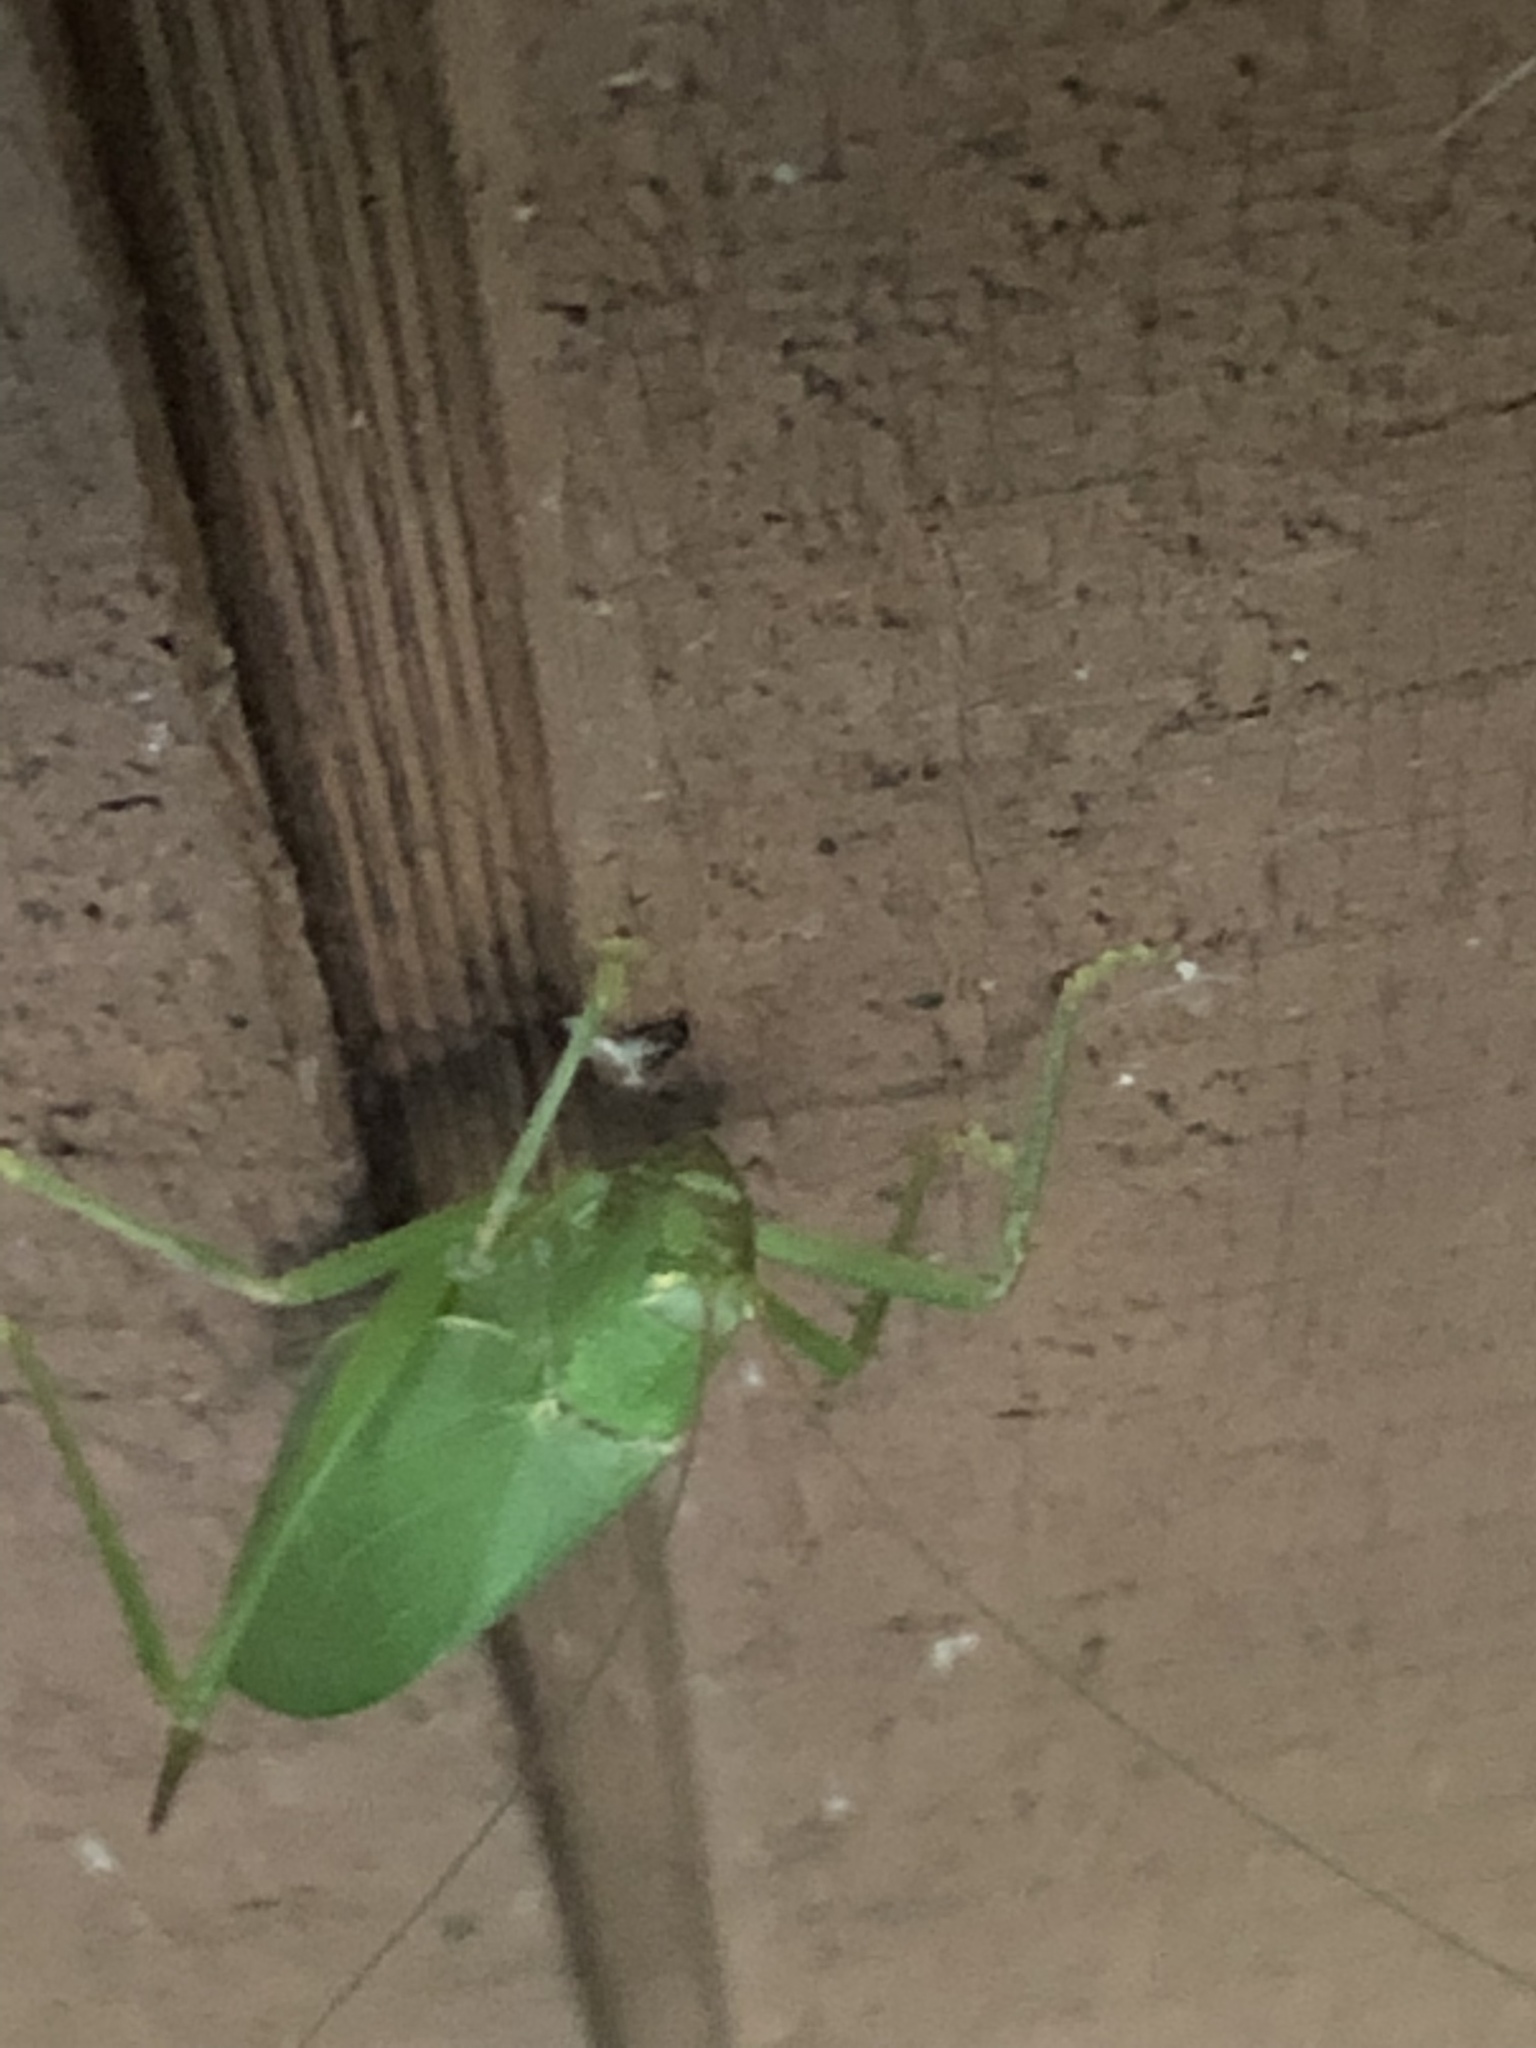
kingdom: Animalia
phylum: Arthropoda
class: Insecta
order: Orthoptera
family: Tettigoniidae
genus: Pterophylla
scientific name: Pterophylla camellifolia
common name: Common true katydid
